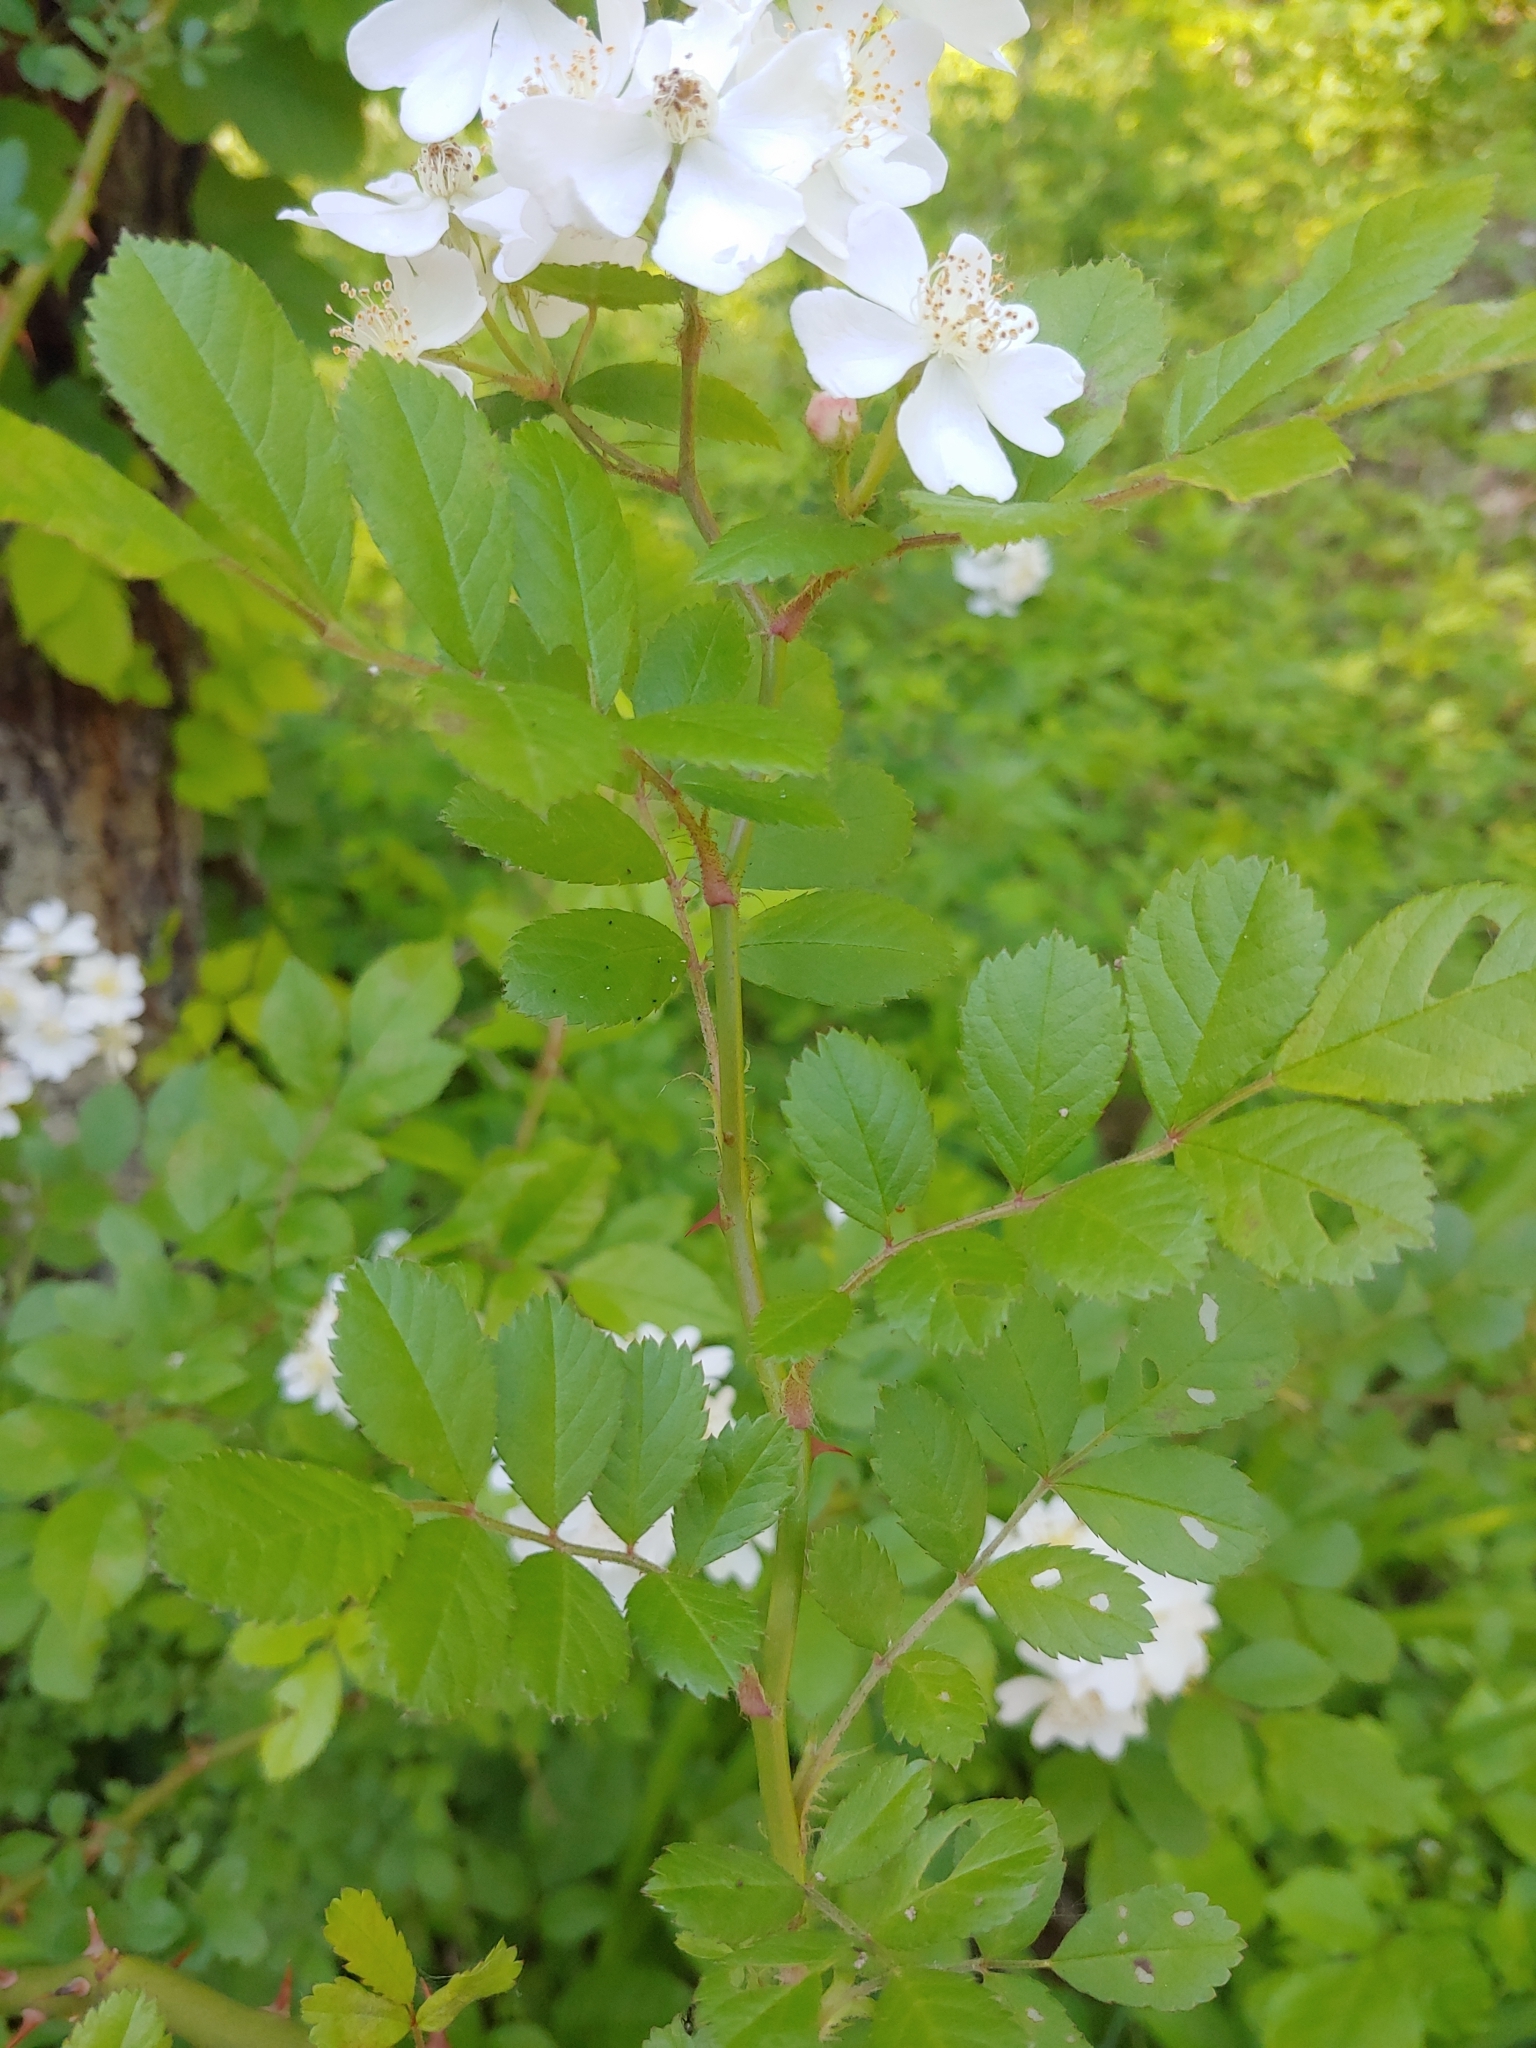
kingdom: Plantae
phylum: Tracheophyta
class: Magnoliopsida
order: Rosales
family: Rosaceae
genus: Rosa
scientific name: Rosa multiflora
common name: Multiflora rose
